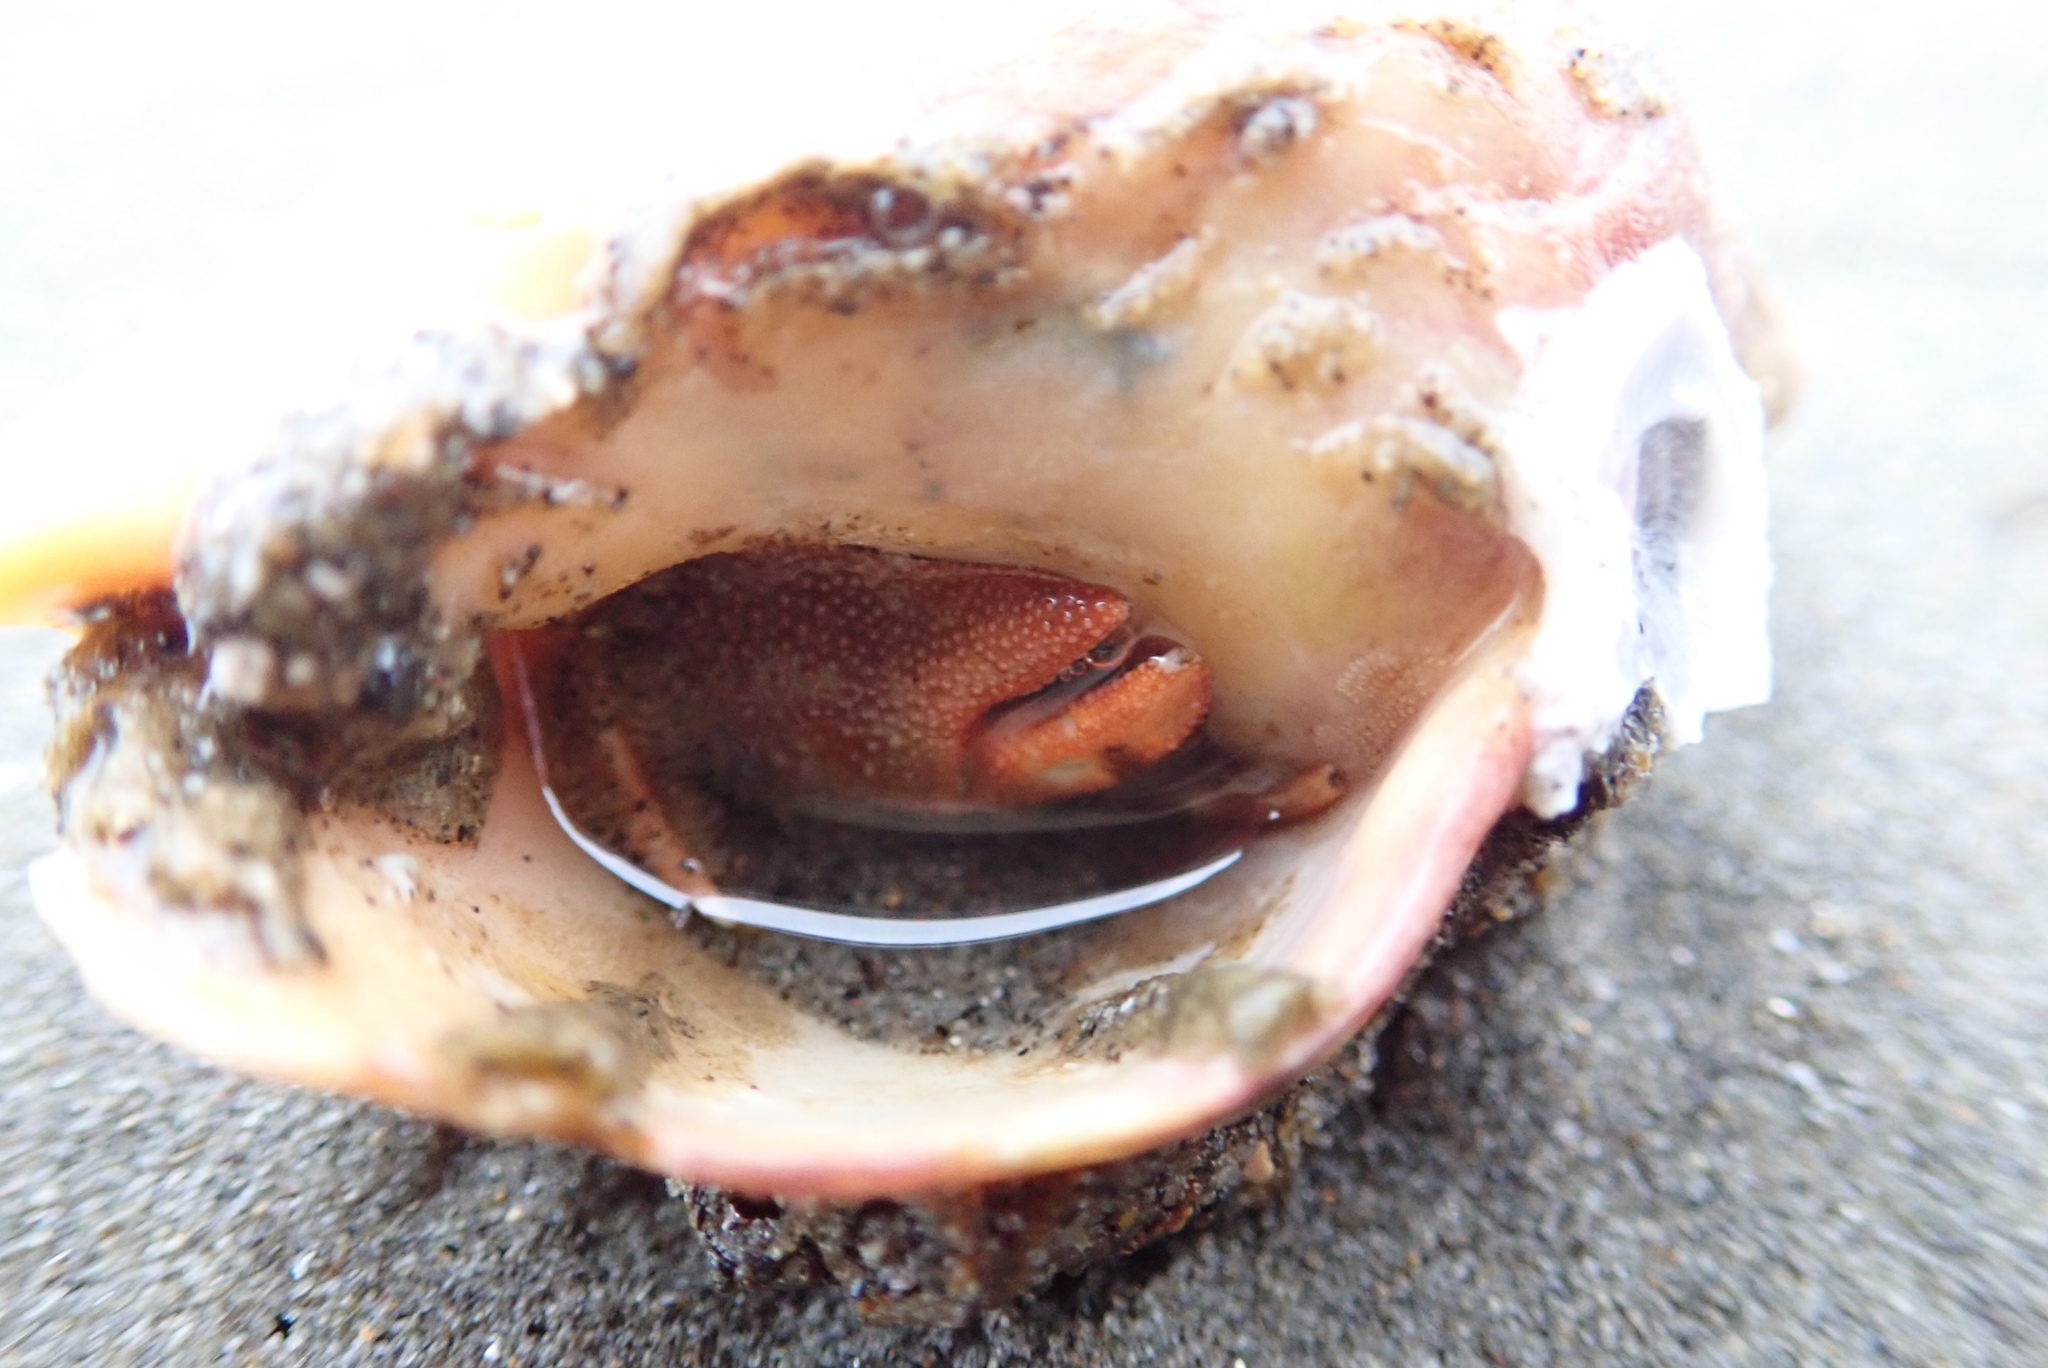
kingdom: Animalia
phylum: Mollusca
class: Gastropoda
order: Neogastropoda
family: Cominellidae
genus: Cominella
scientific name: Cominella adspersa
